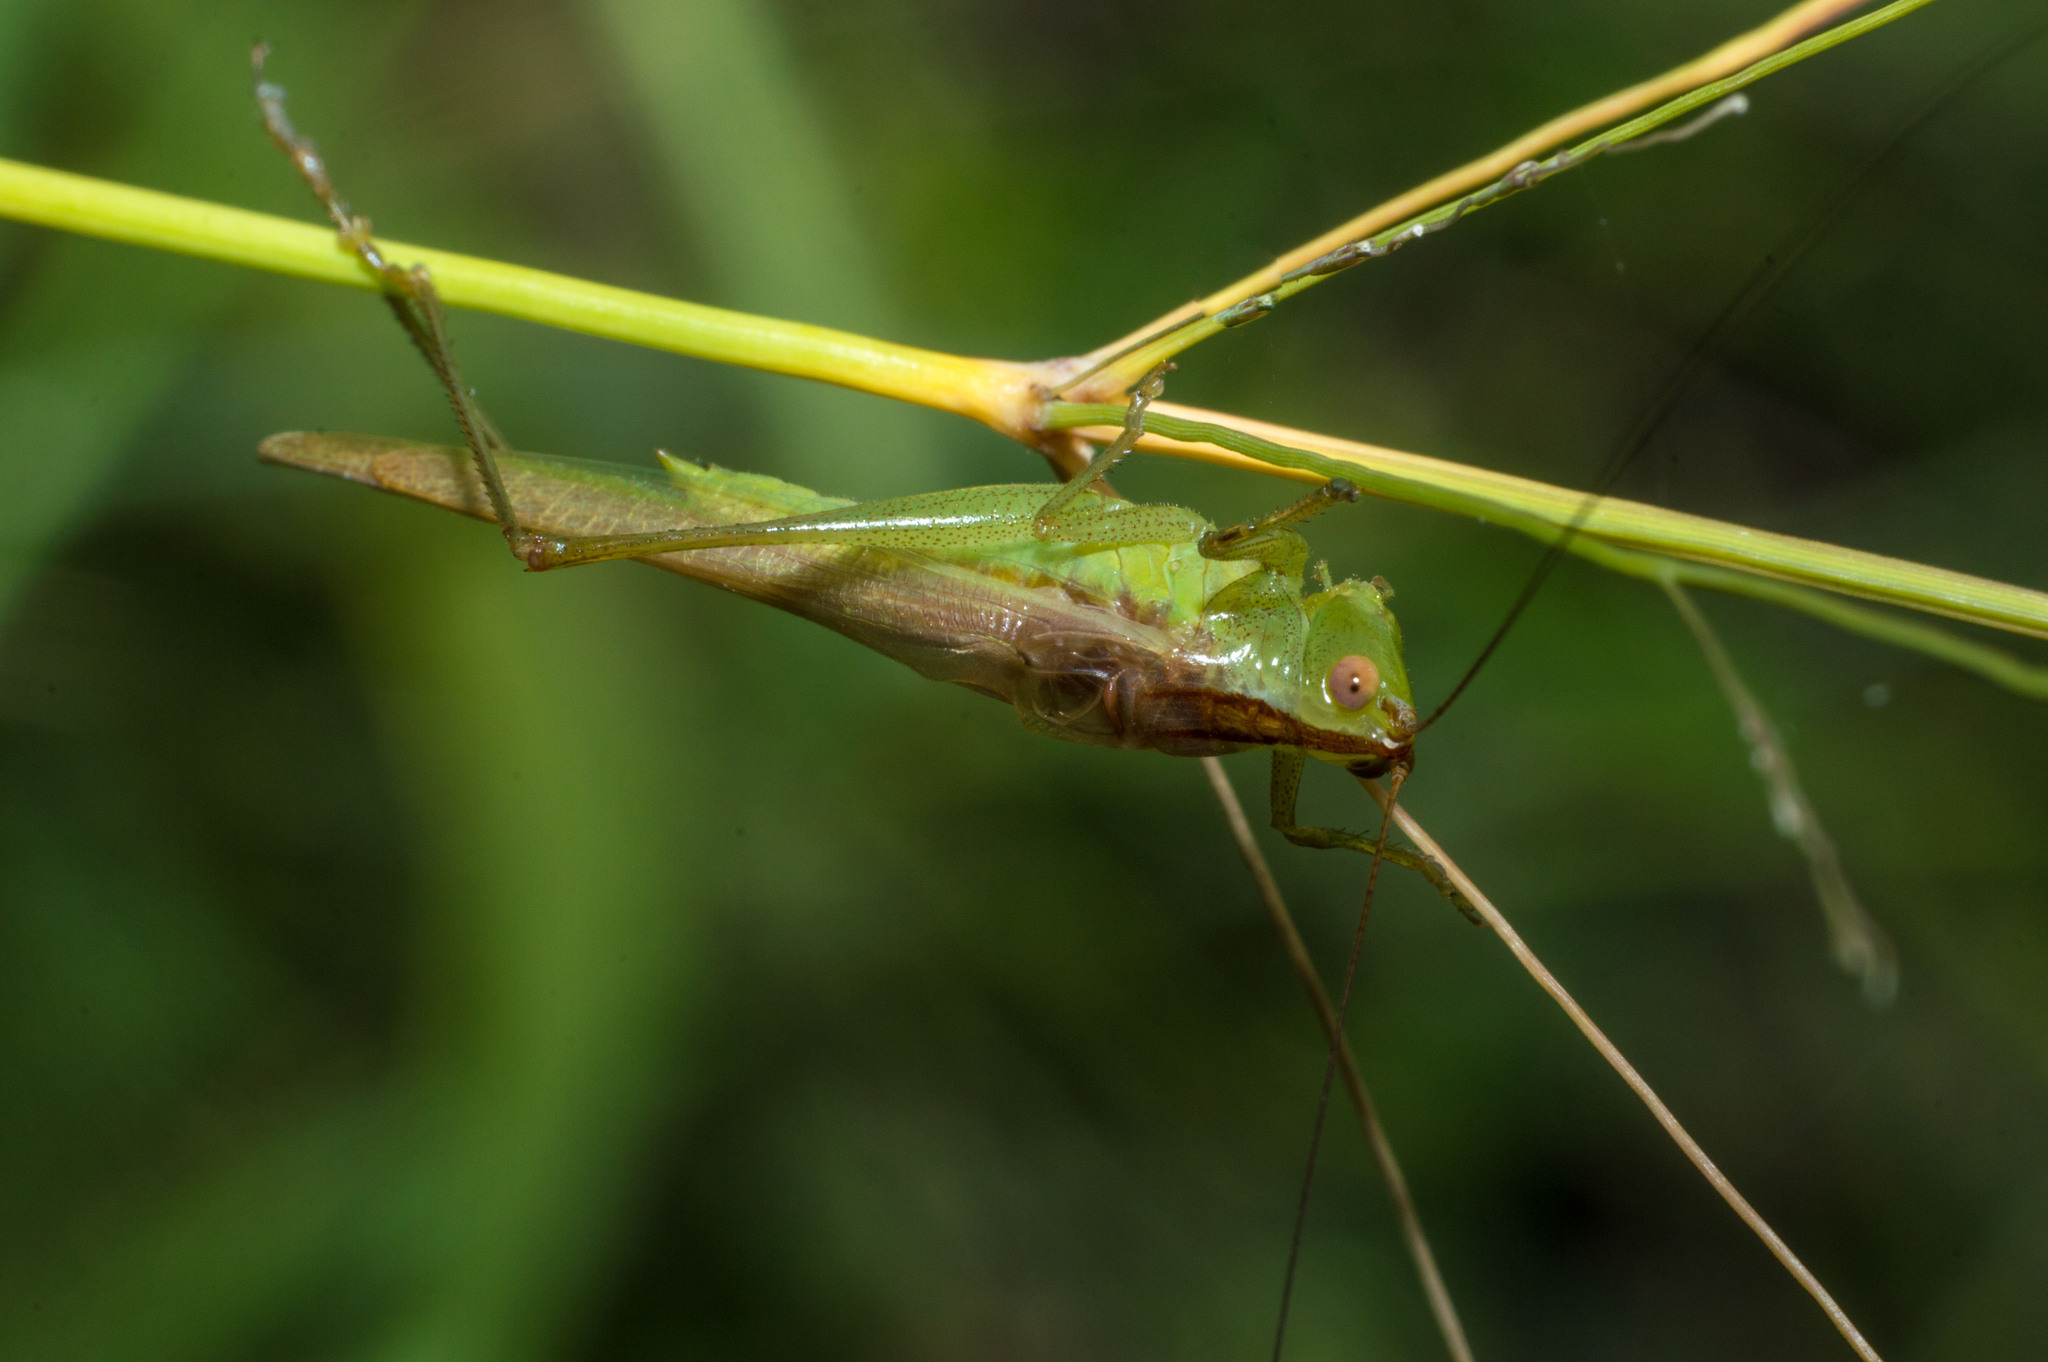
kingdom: Animalia
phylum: Arthropoda
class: Insecta
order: Orthoptera
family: Tettigoniidae
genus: Conocephalus
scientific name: Conocephalus longipes
